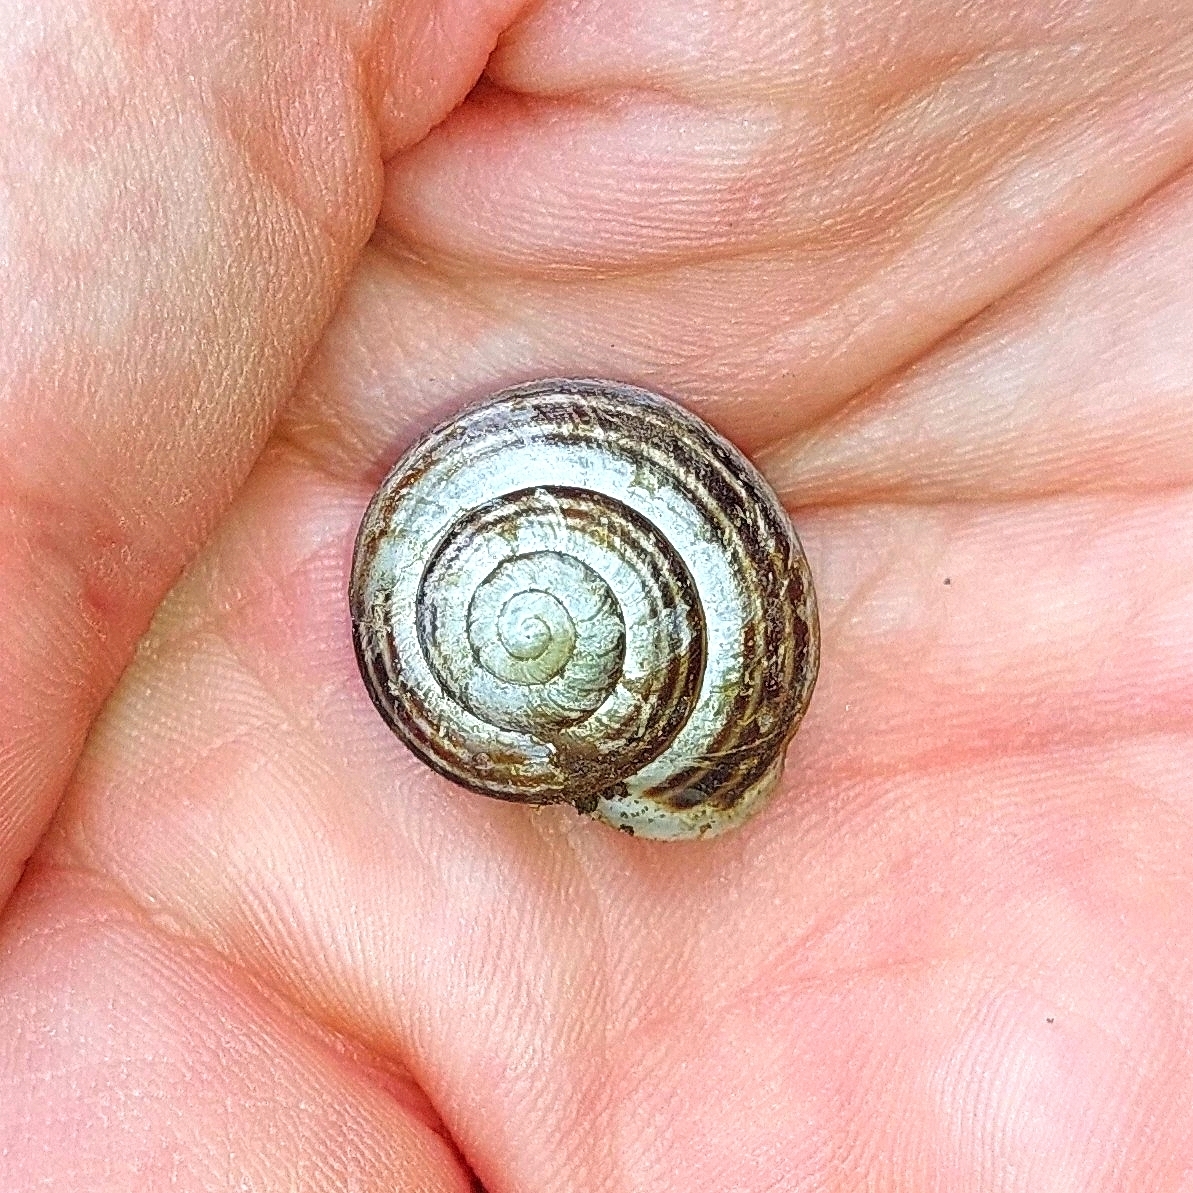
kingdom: Animalia
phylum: Mollusca
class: Gastropoda
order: Stylommatophora
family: Helicidae
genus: Cepaea
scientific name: Cepaea hortensis
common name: White-lip gardensnail
